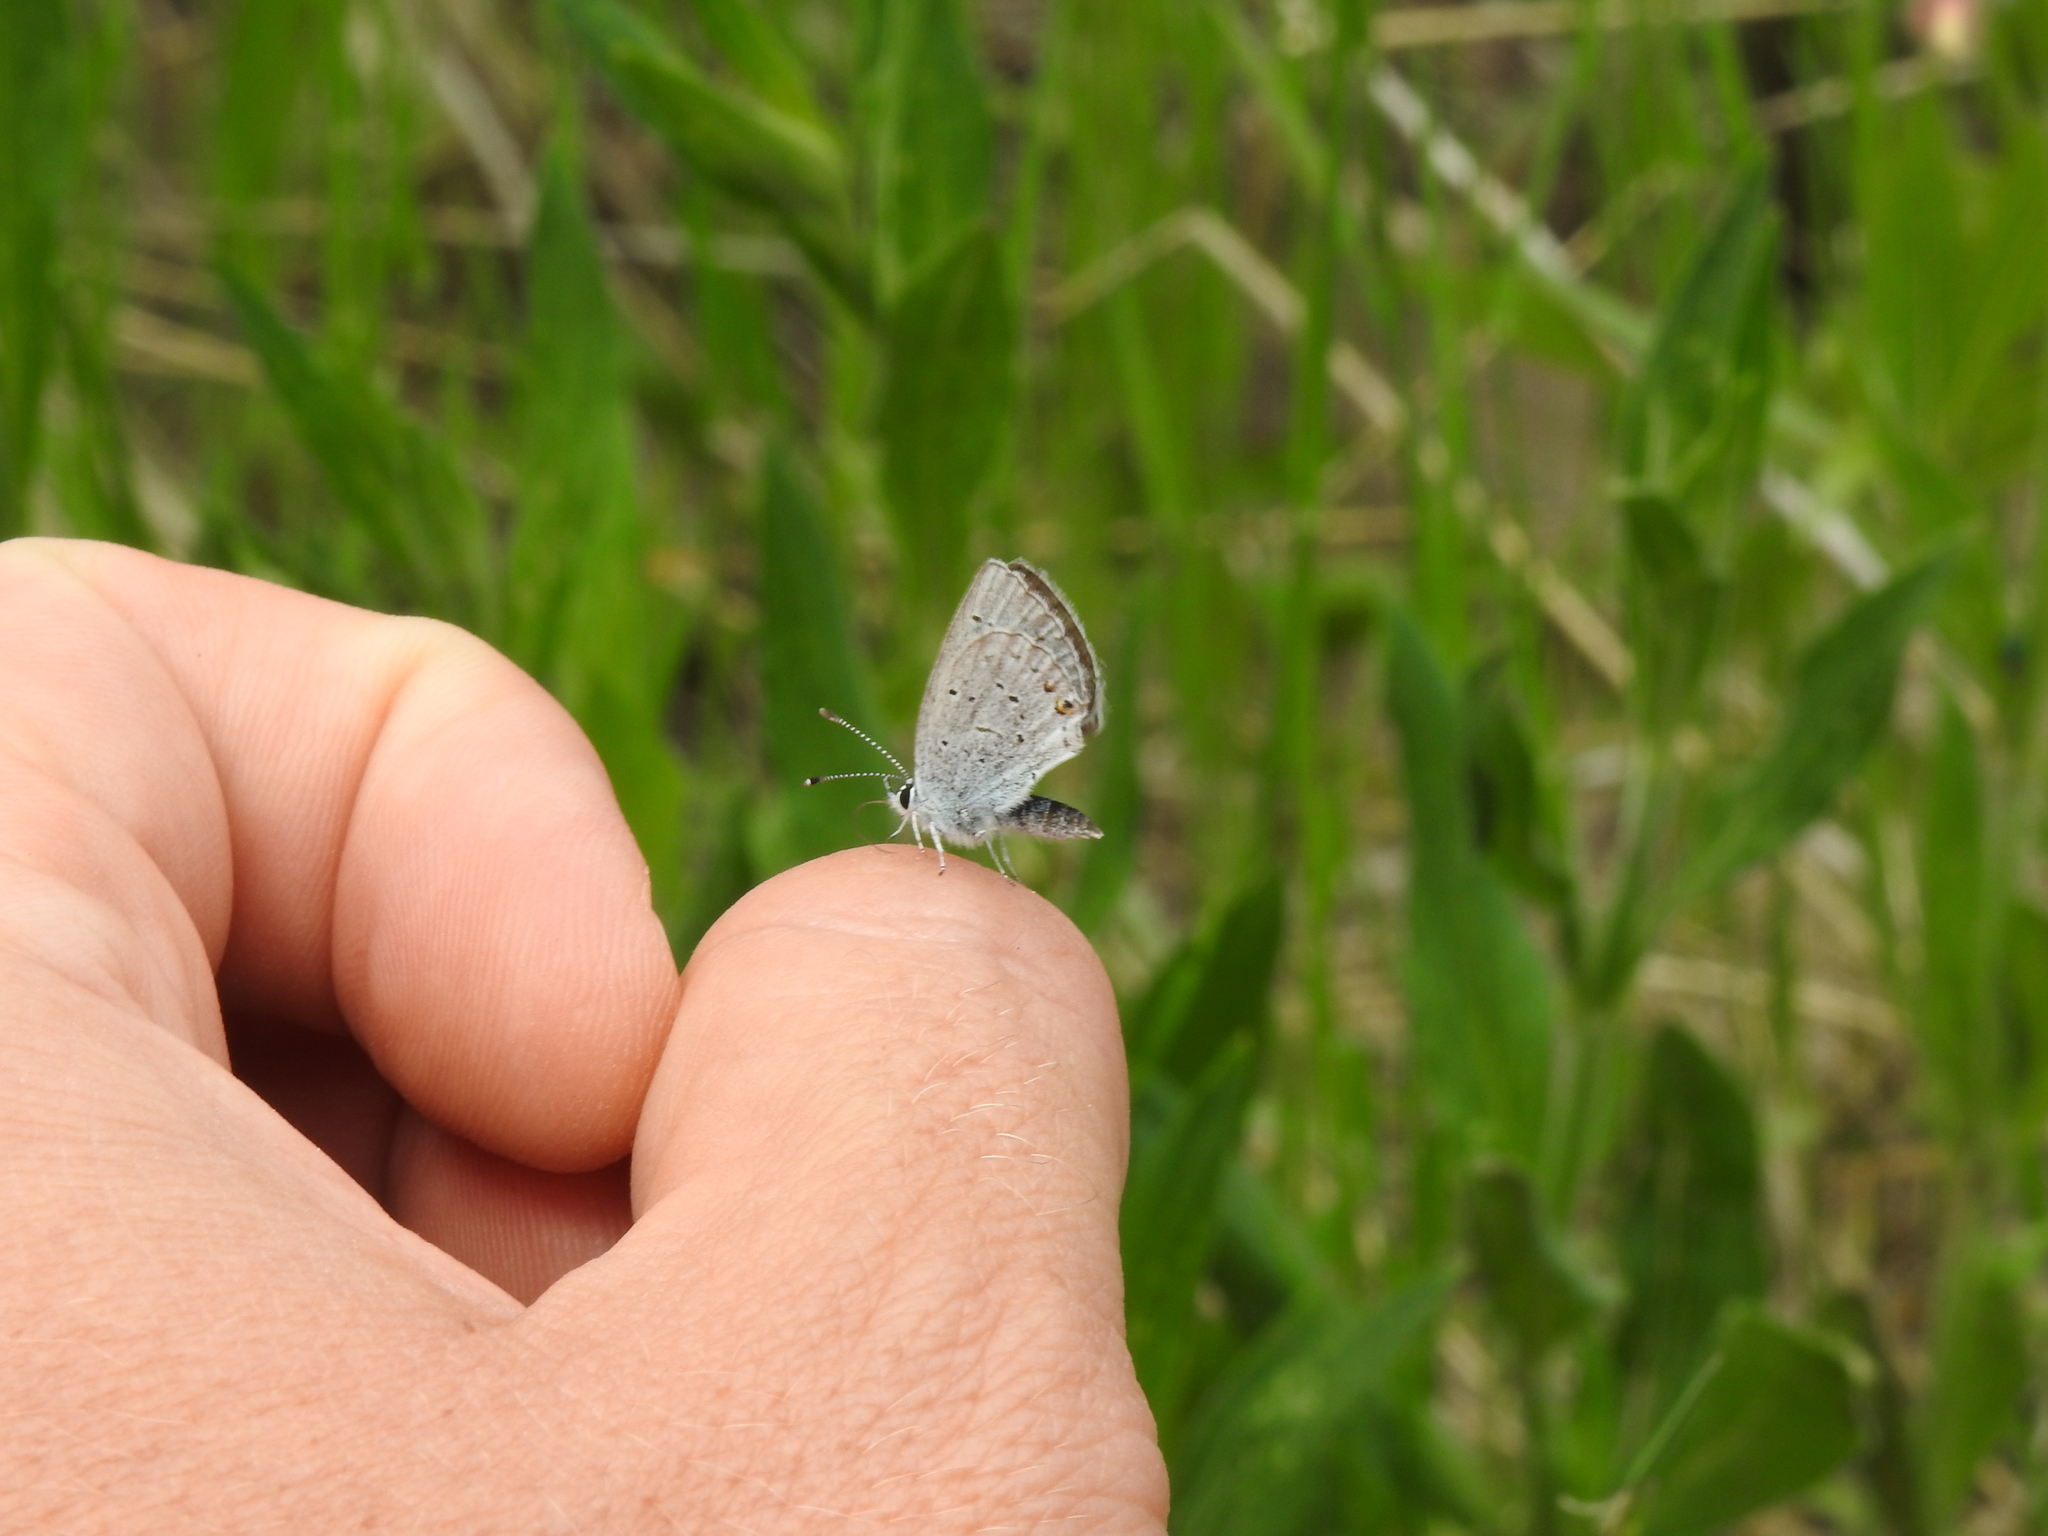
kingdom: Animalia
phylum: Arthropoda
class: Insecta
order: Lepidoptera
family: Lycaenidae
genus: Elkalyce
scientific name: Elkalyce amyntula
